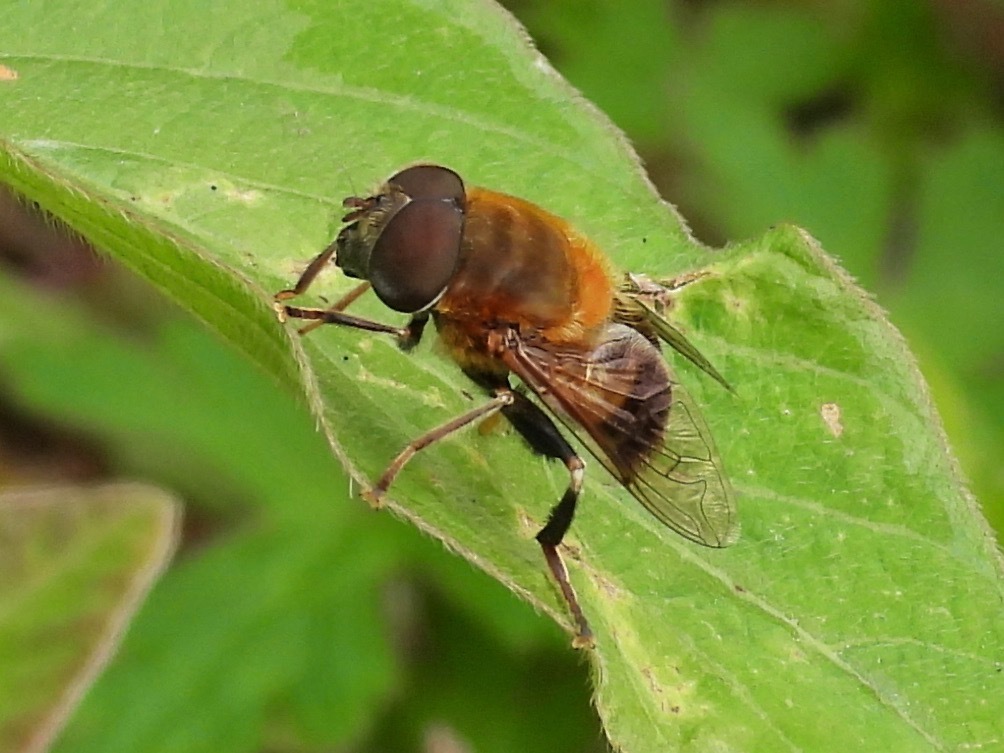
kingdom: Animalia
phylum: Arthropoda
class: Insecta
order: Diptera
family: Syrphidae
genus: Palpada
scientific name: Palpada mexicana
